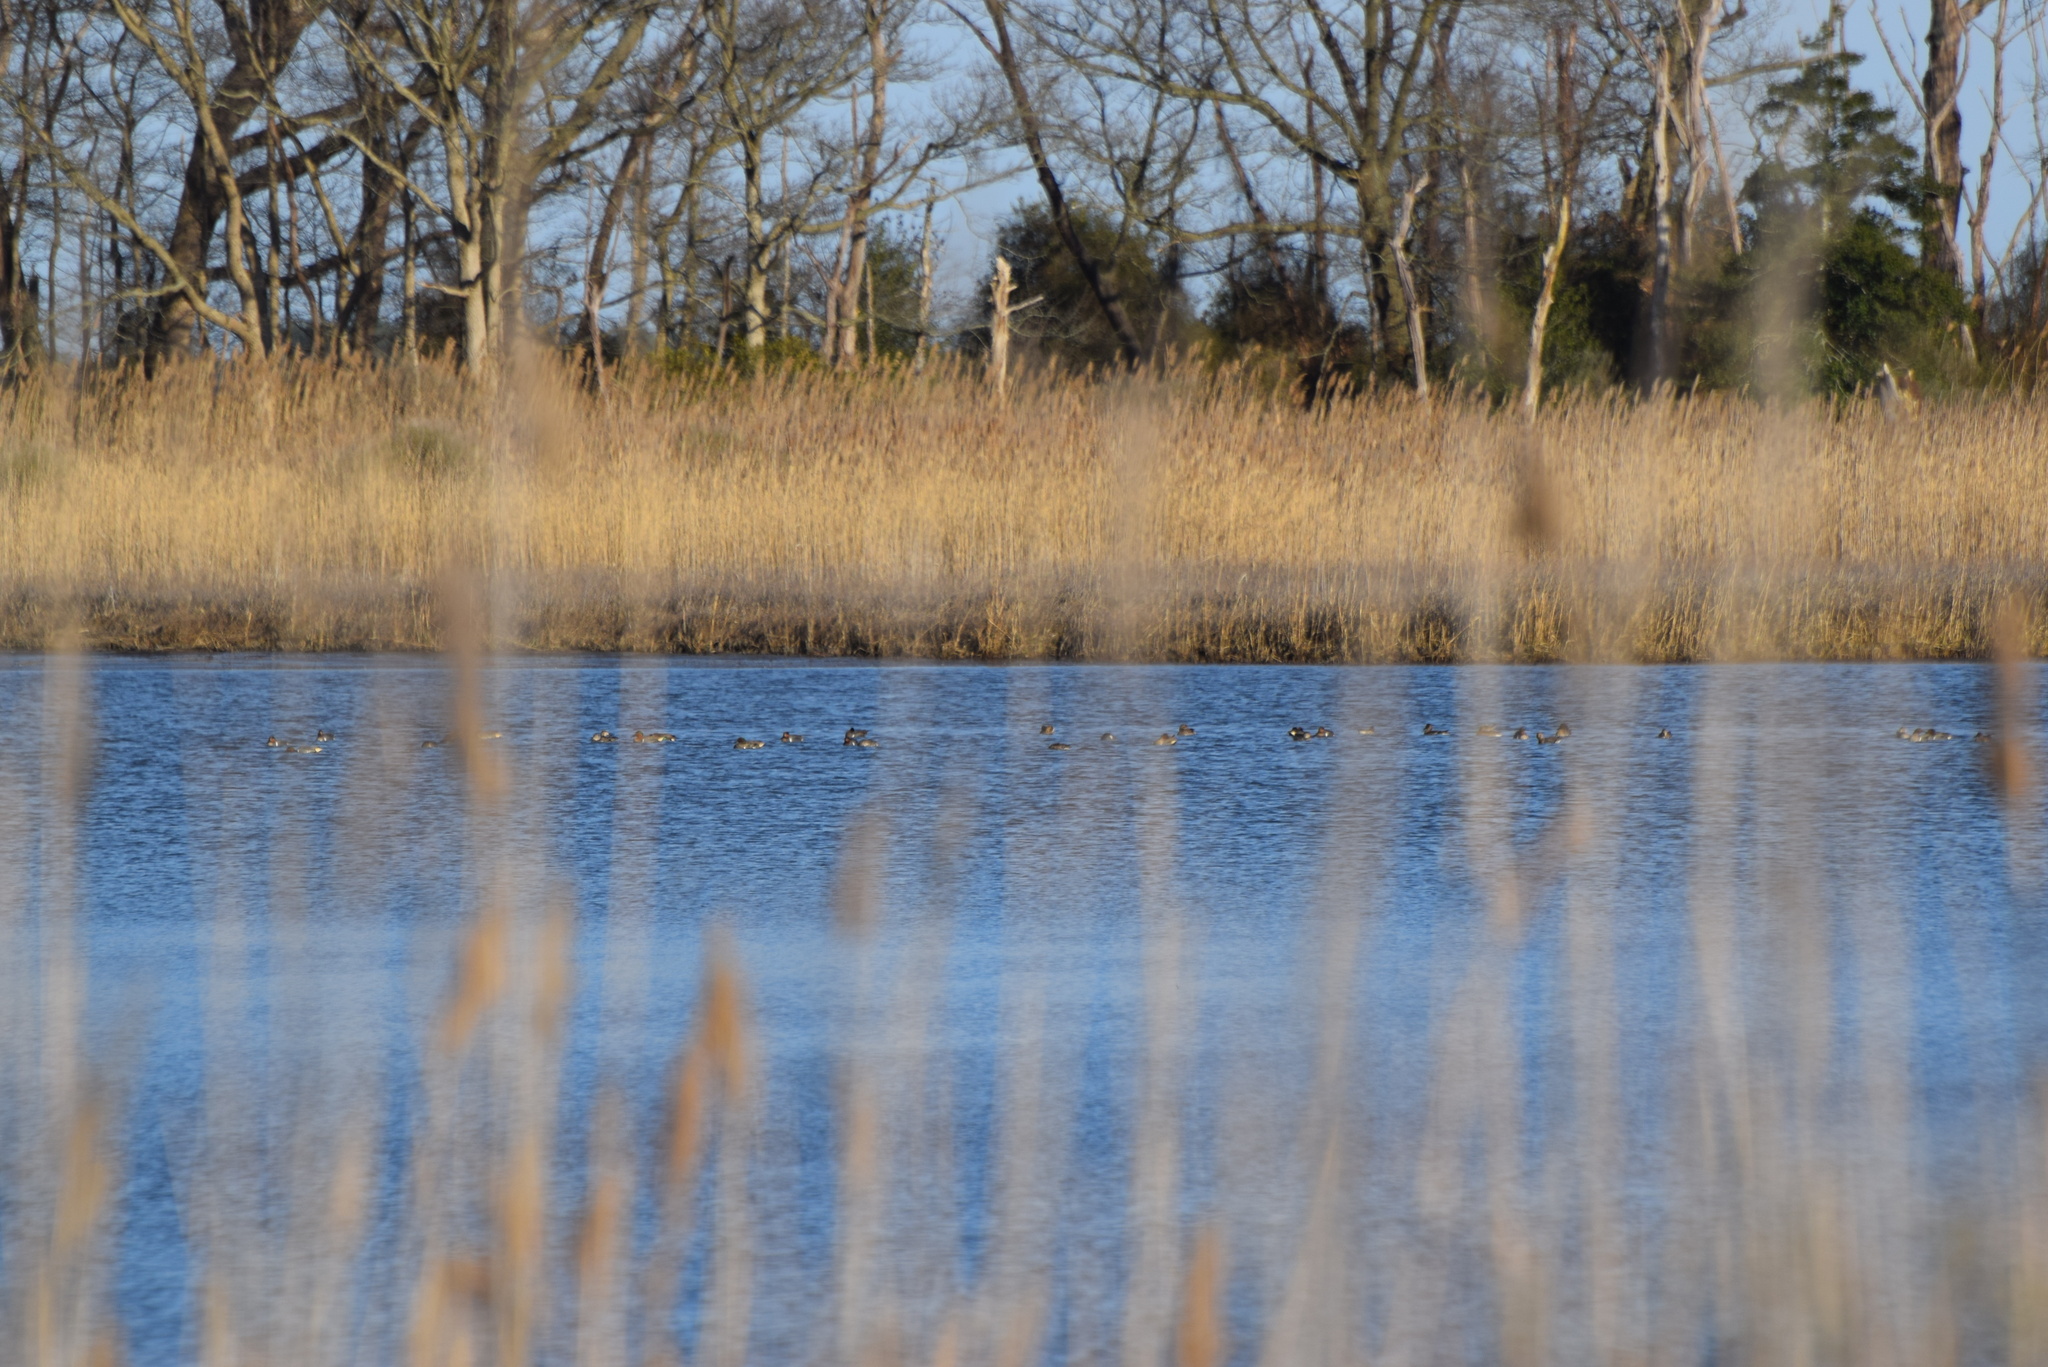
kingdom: Animalia
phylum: Chordata
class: Aves
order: Anseriformes
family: Anatidae
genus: Anas
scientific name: Anas crecca
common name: Eurasian teal
